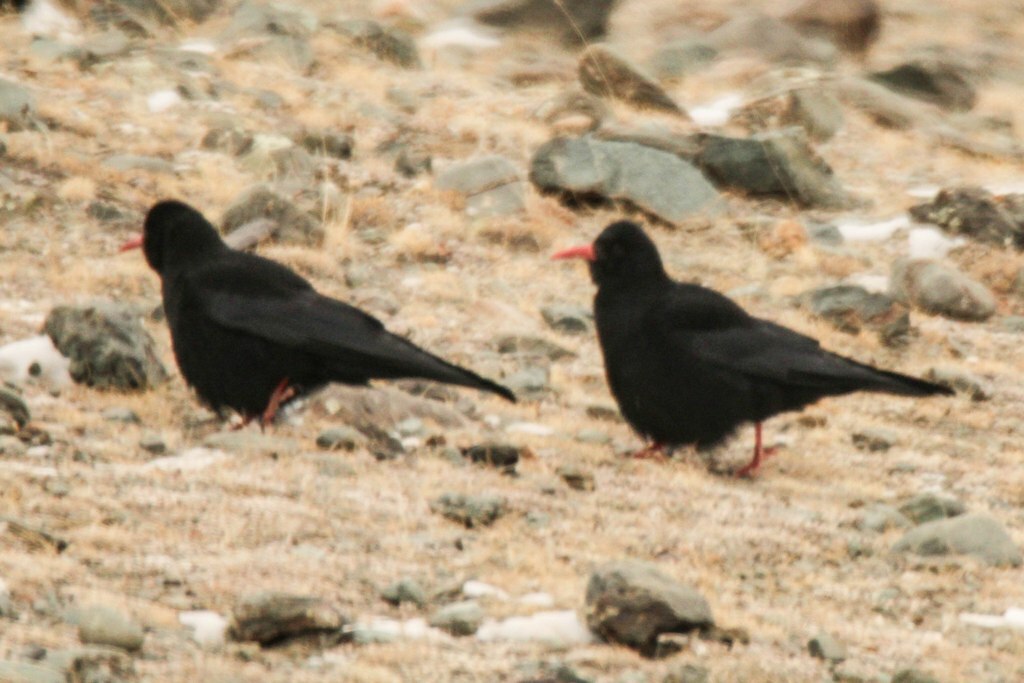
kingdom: Animalia
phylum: Chordata
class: Aves
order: Passeriformes
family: Corvidae
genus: Pyrrhocorax
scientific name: Pyrrhocorax pyrrhocorax
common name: Red-billed chough
